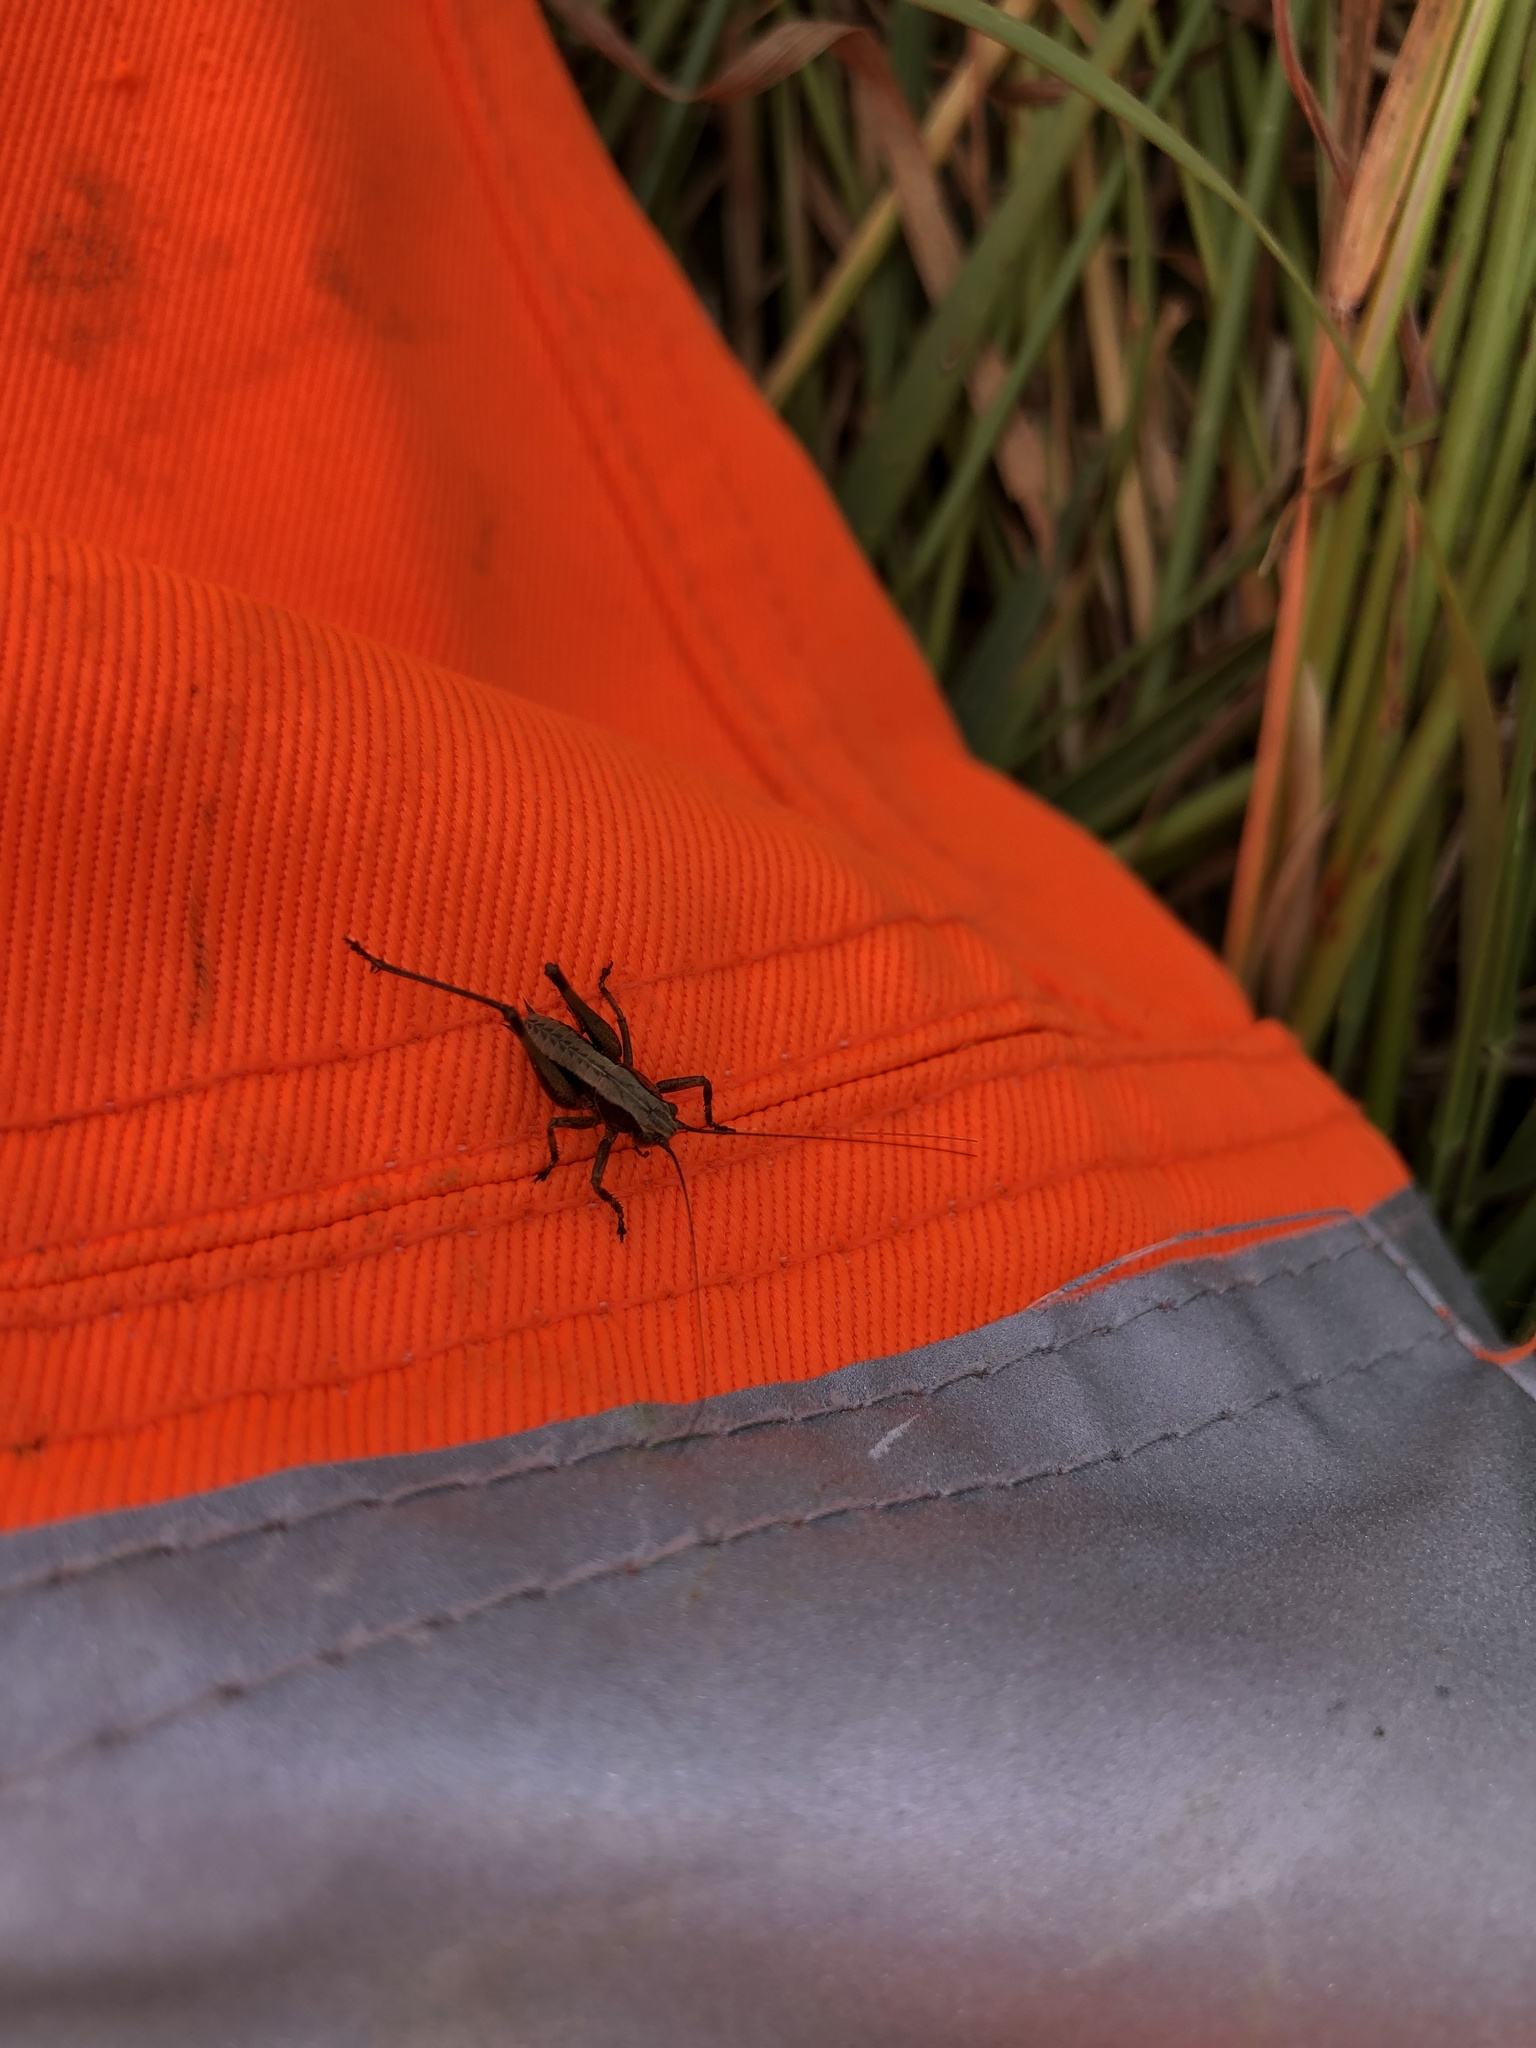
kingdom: Animalia
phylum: Arthropoda
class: Insecta
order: Orthoptera
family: Tettigoniidae
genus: Pholidoptera
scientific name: Pholidoptera griseoaptera
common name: Dark bush-cricket
